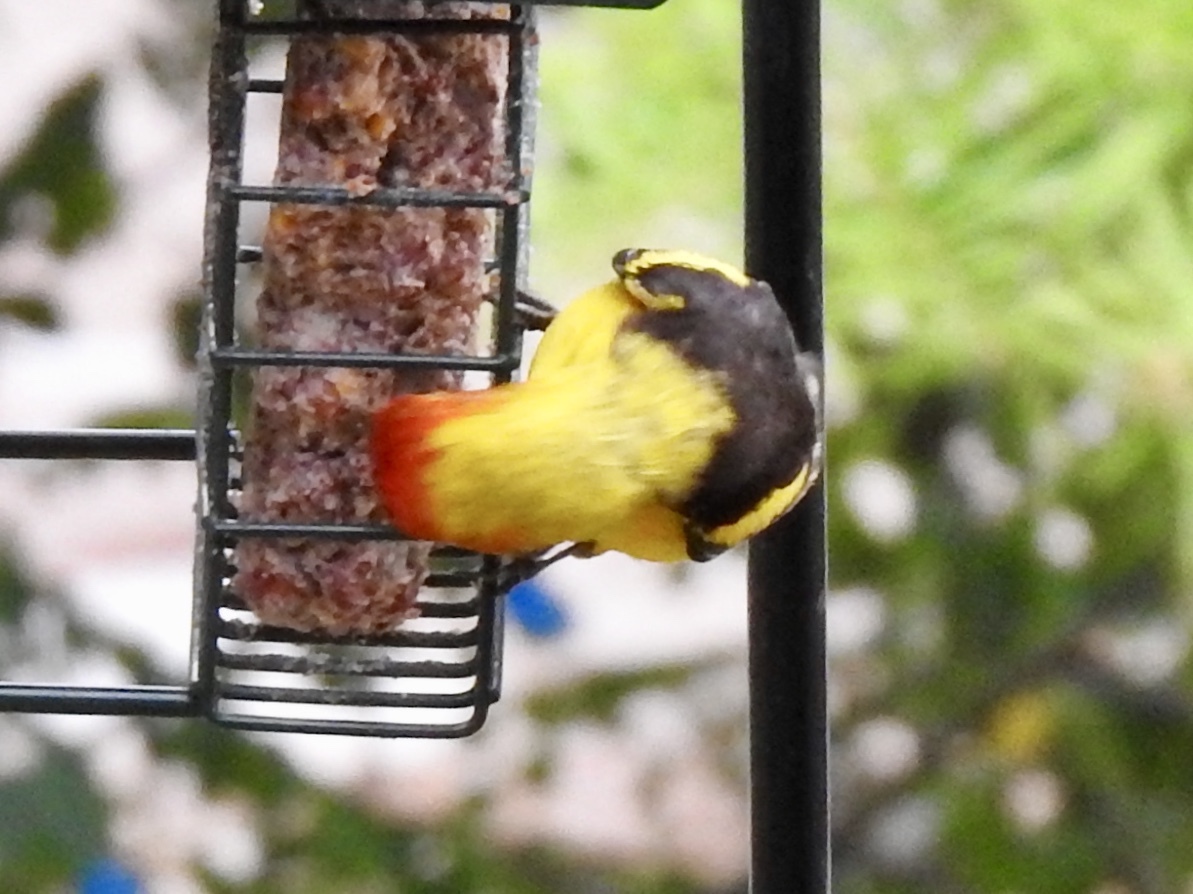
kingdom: Animalia
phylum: Chordata
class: Aves
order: Passeriformes
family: Cardinalidae
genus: Piranga
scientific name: Piranga ludoviciana
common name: Western tanager
